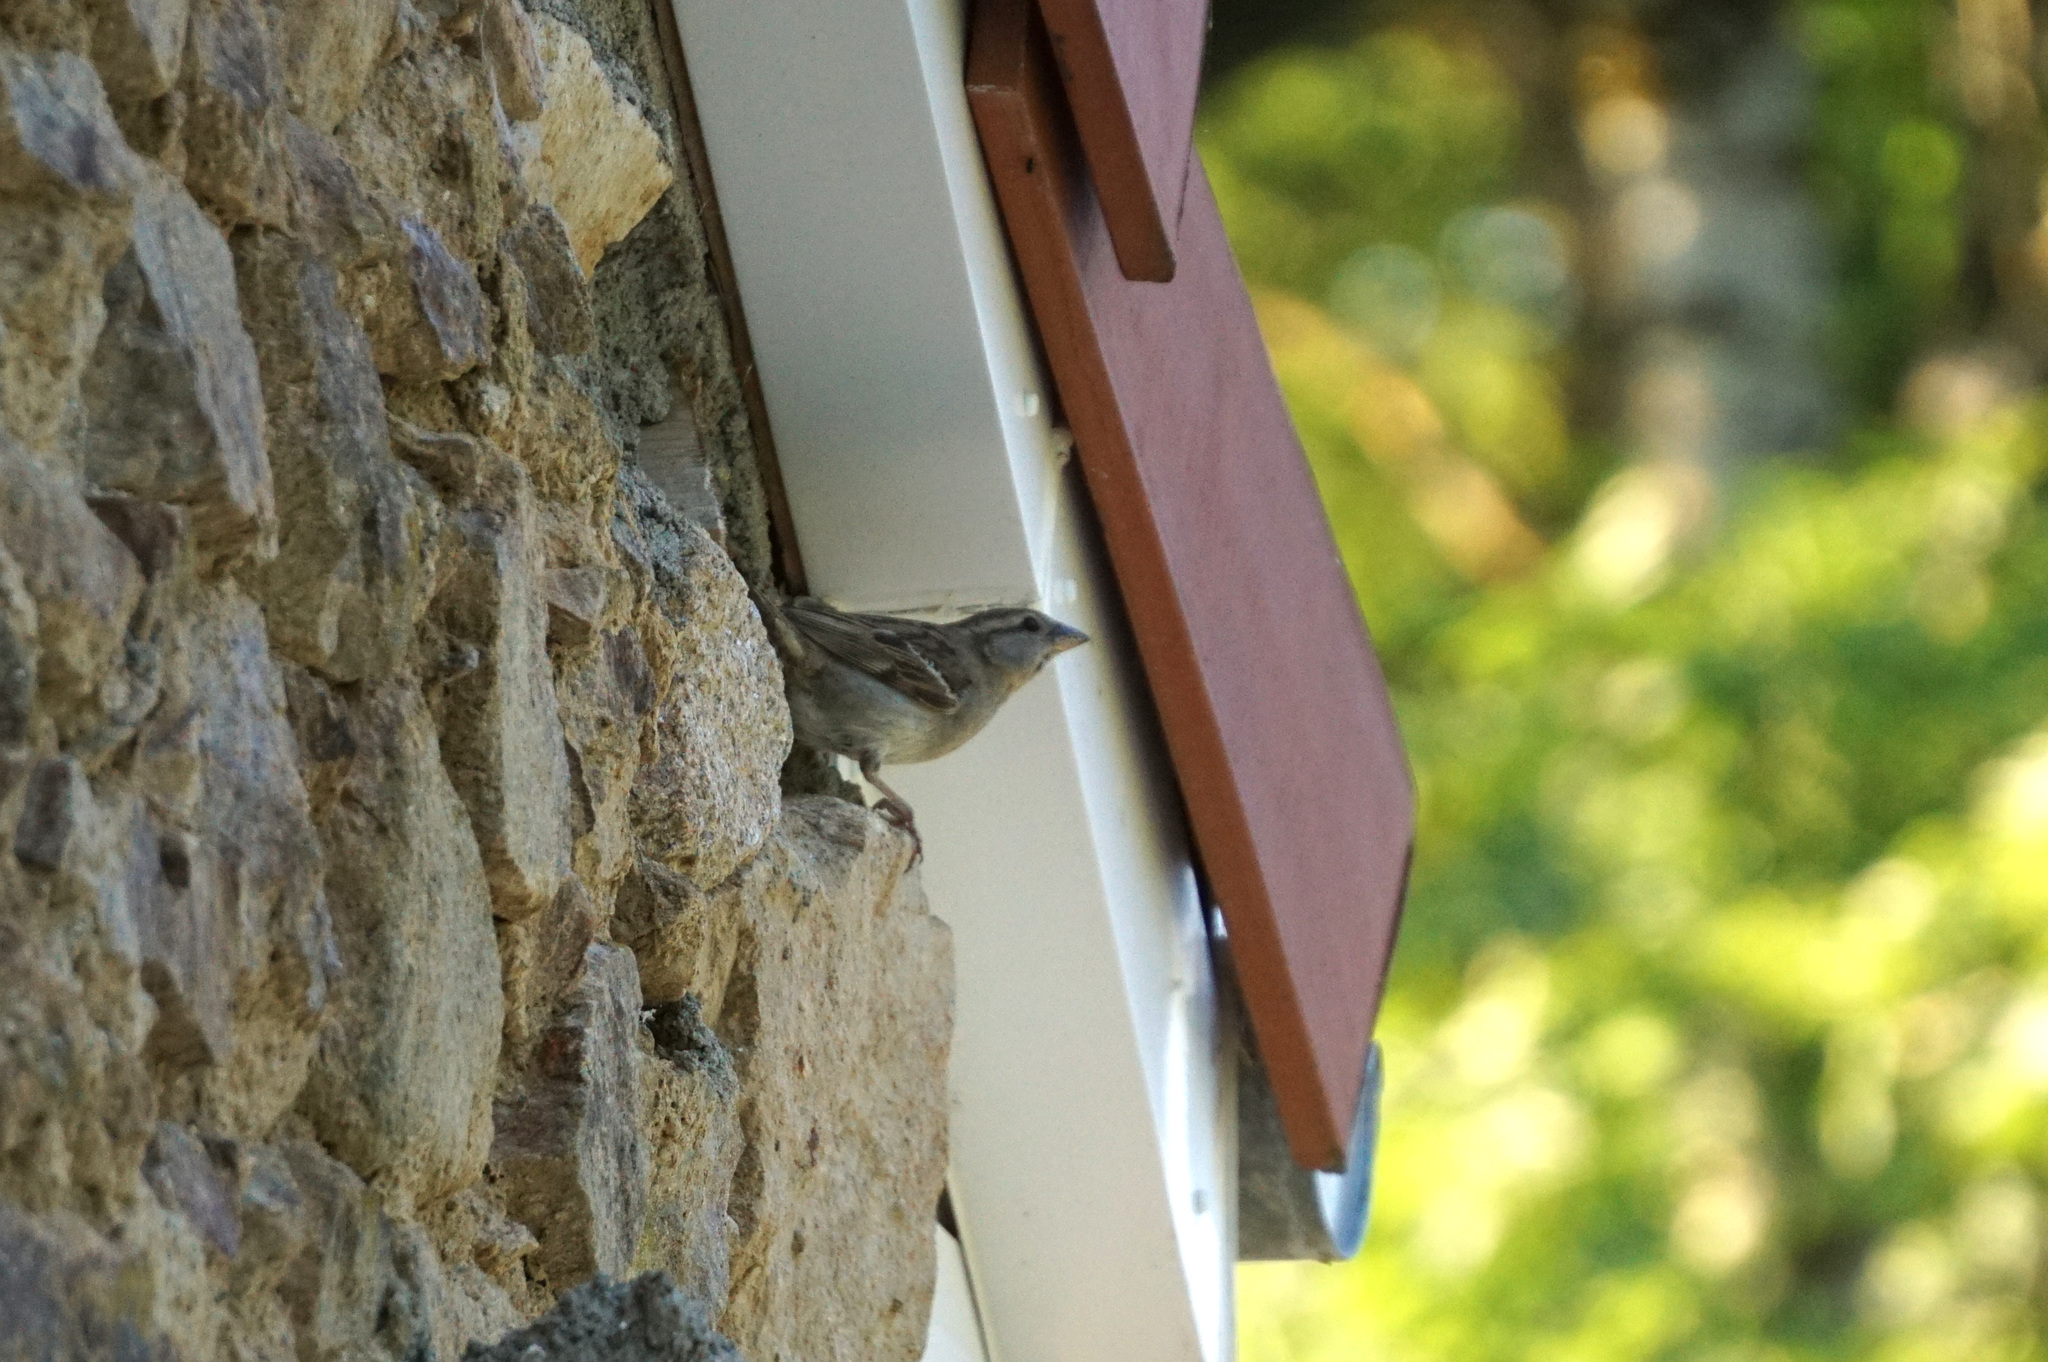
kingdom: Animalia
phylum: Chordata
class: Aves
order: Passeriformes
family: Passeridae
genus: Passer
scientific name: Passer domesticus
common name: House sparrow
